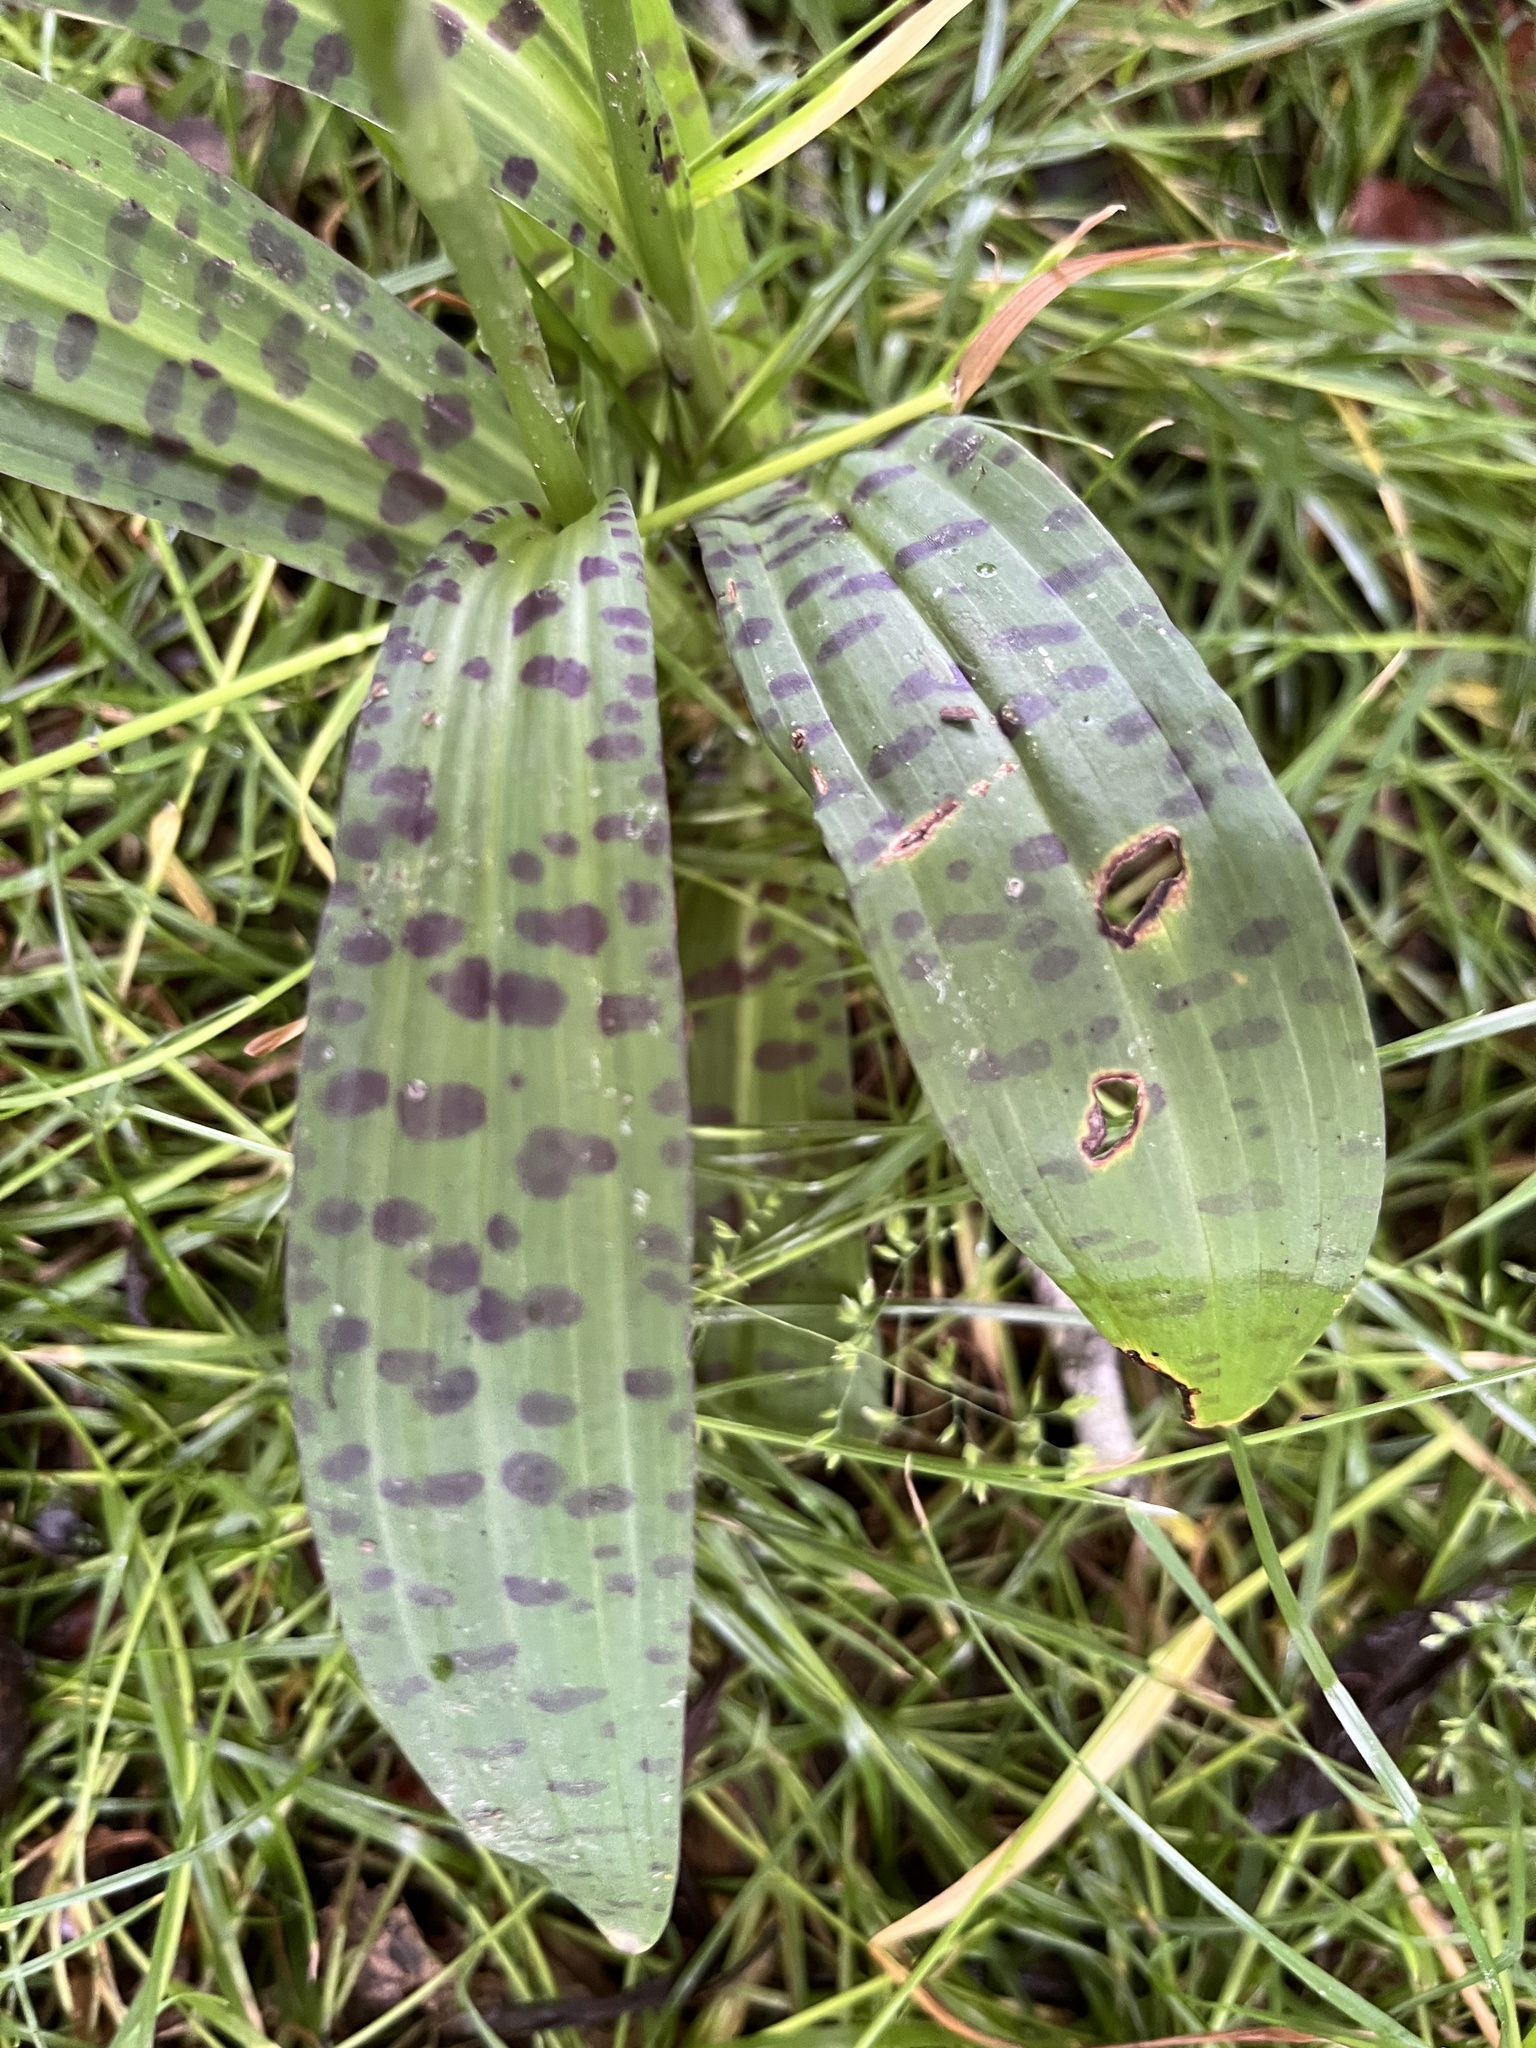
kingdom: Plantae
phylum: Tracheophyta
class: Liliopsida
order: Asparagales
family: Orchidaceae
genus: Dactylorhiza
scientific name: Dactylorhiza maculata
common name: Heath spotted-orchid
